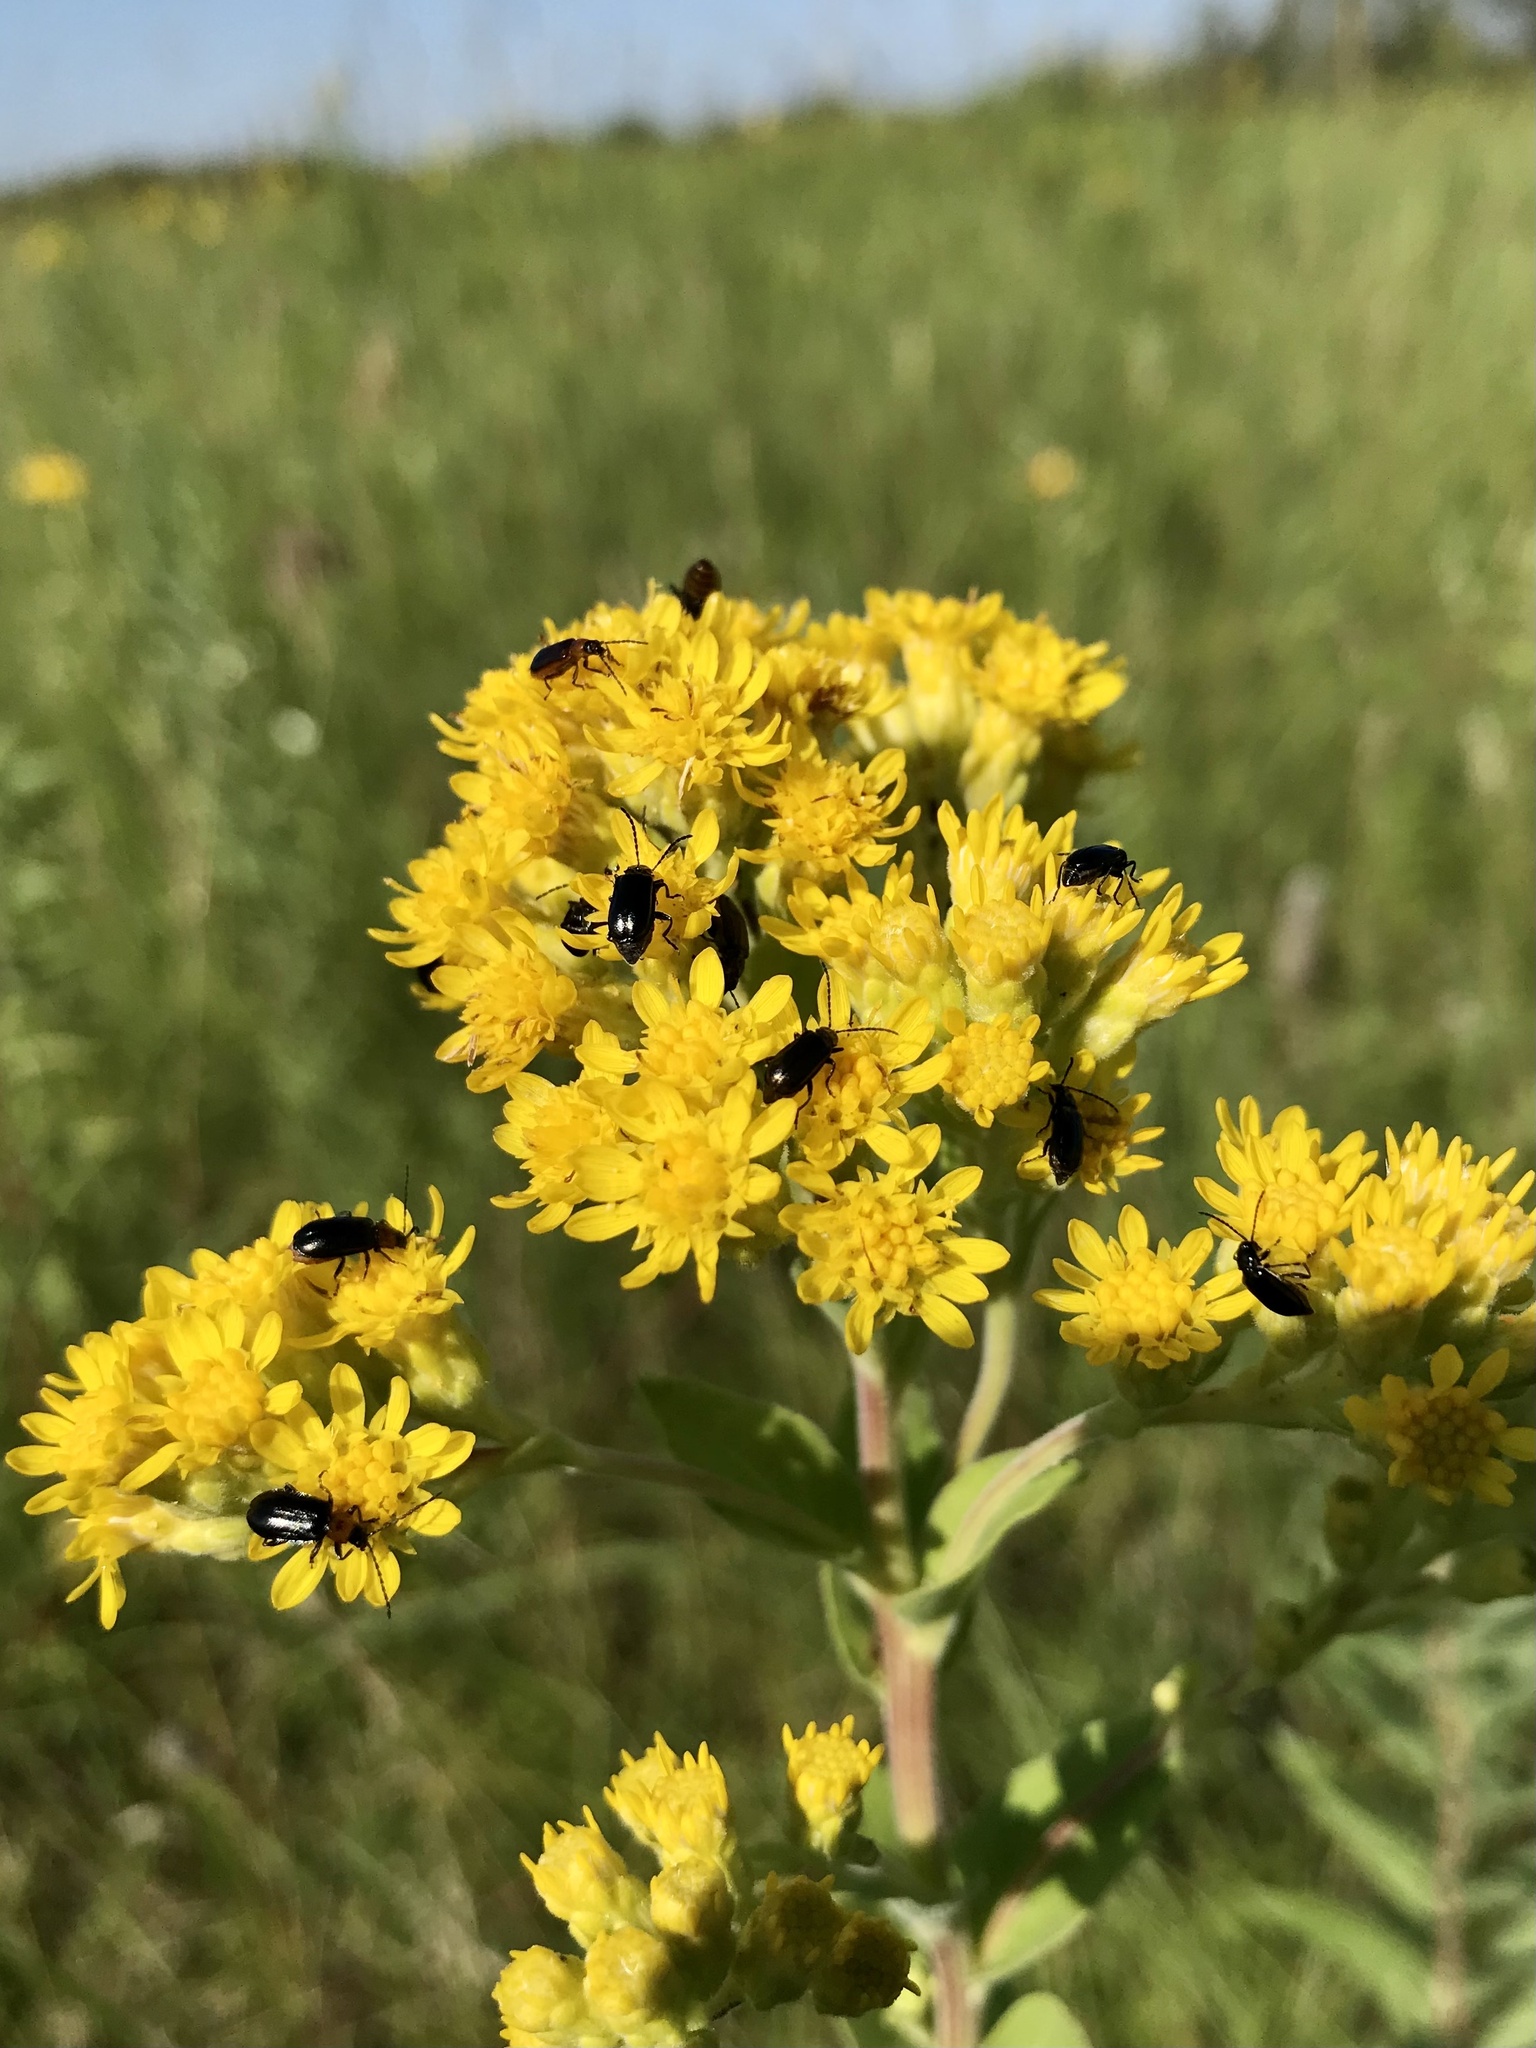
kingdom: Animalia
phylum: Arthropoda
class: Insecta
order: Coleoptera
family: Chrysomelidae
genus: Diabrotica
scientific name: Diabrotica cristata
